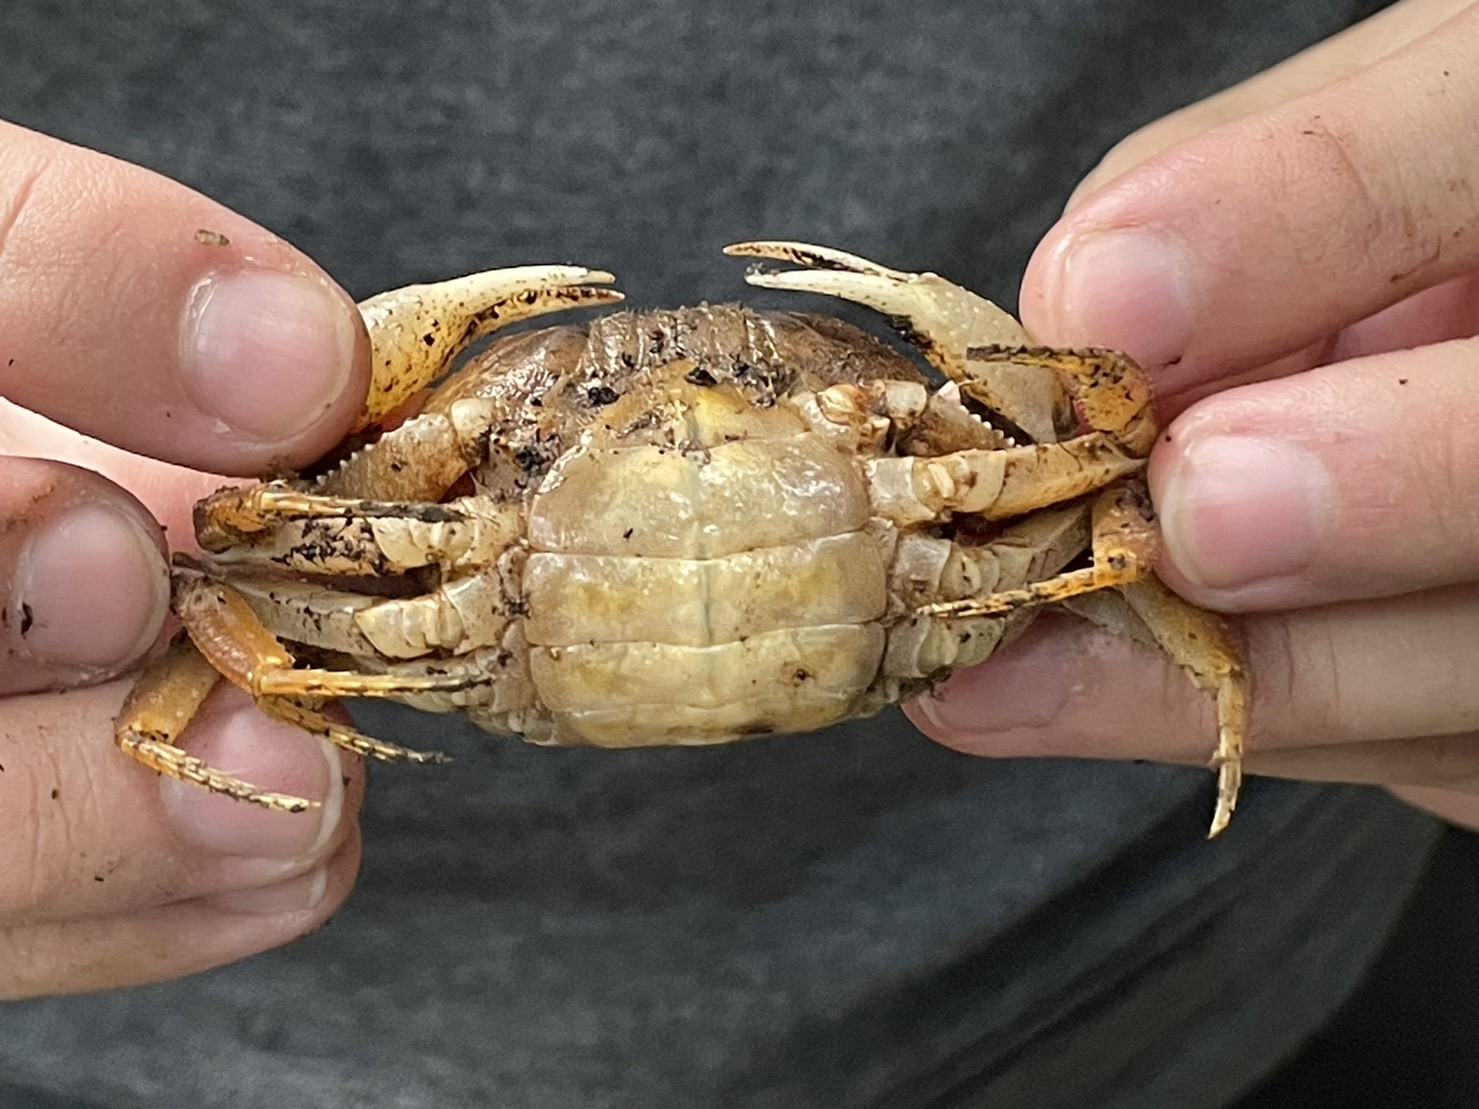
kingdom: Animalia
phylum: Arthropoda
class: Malacostraca
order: Decapoda
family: Potamidae
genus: Potamiscus
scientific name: Potamiscus montosus
